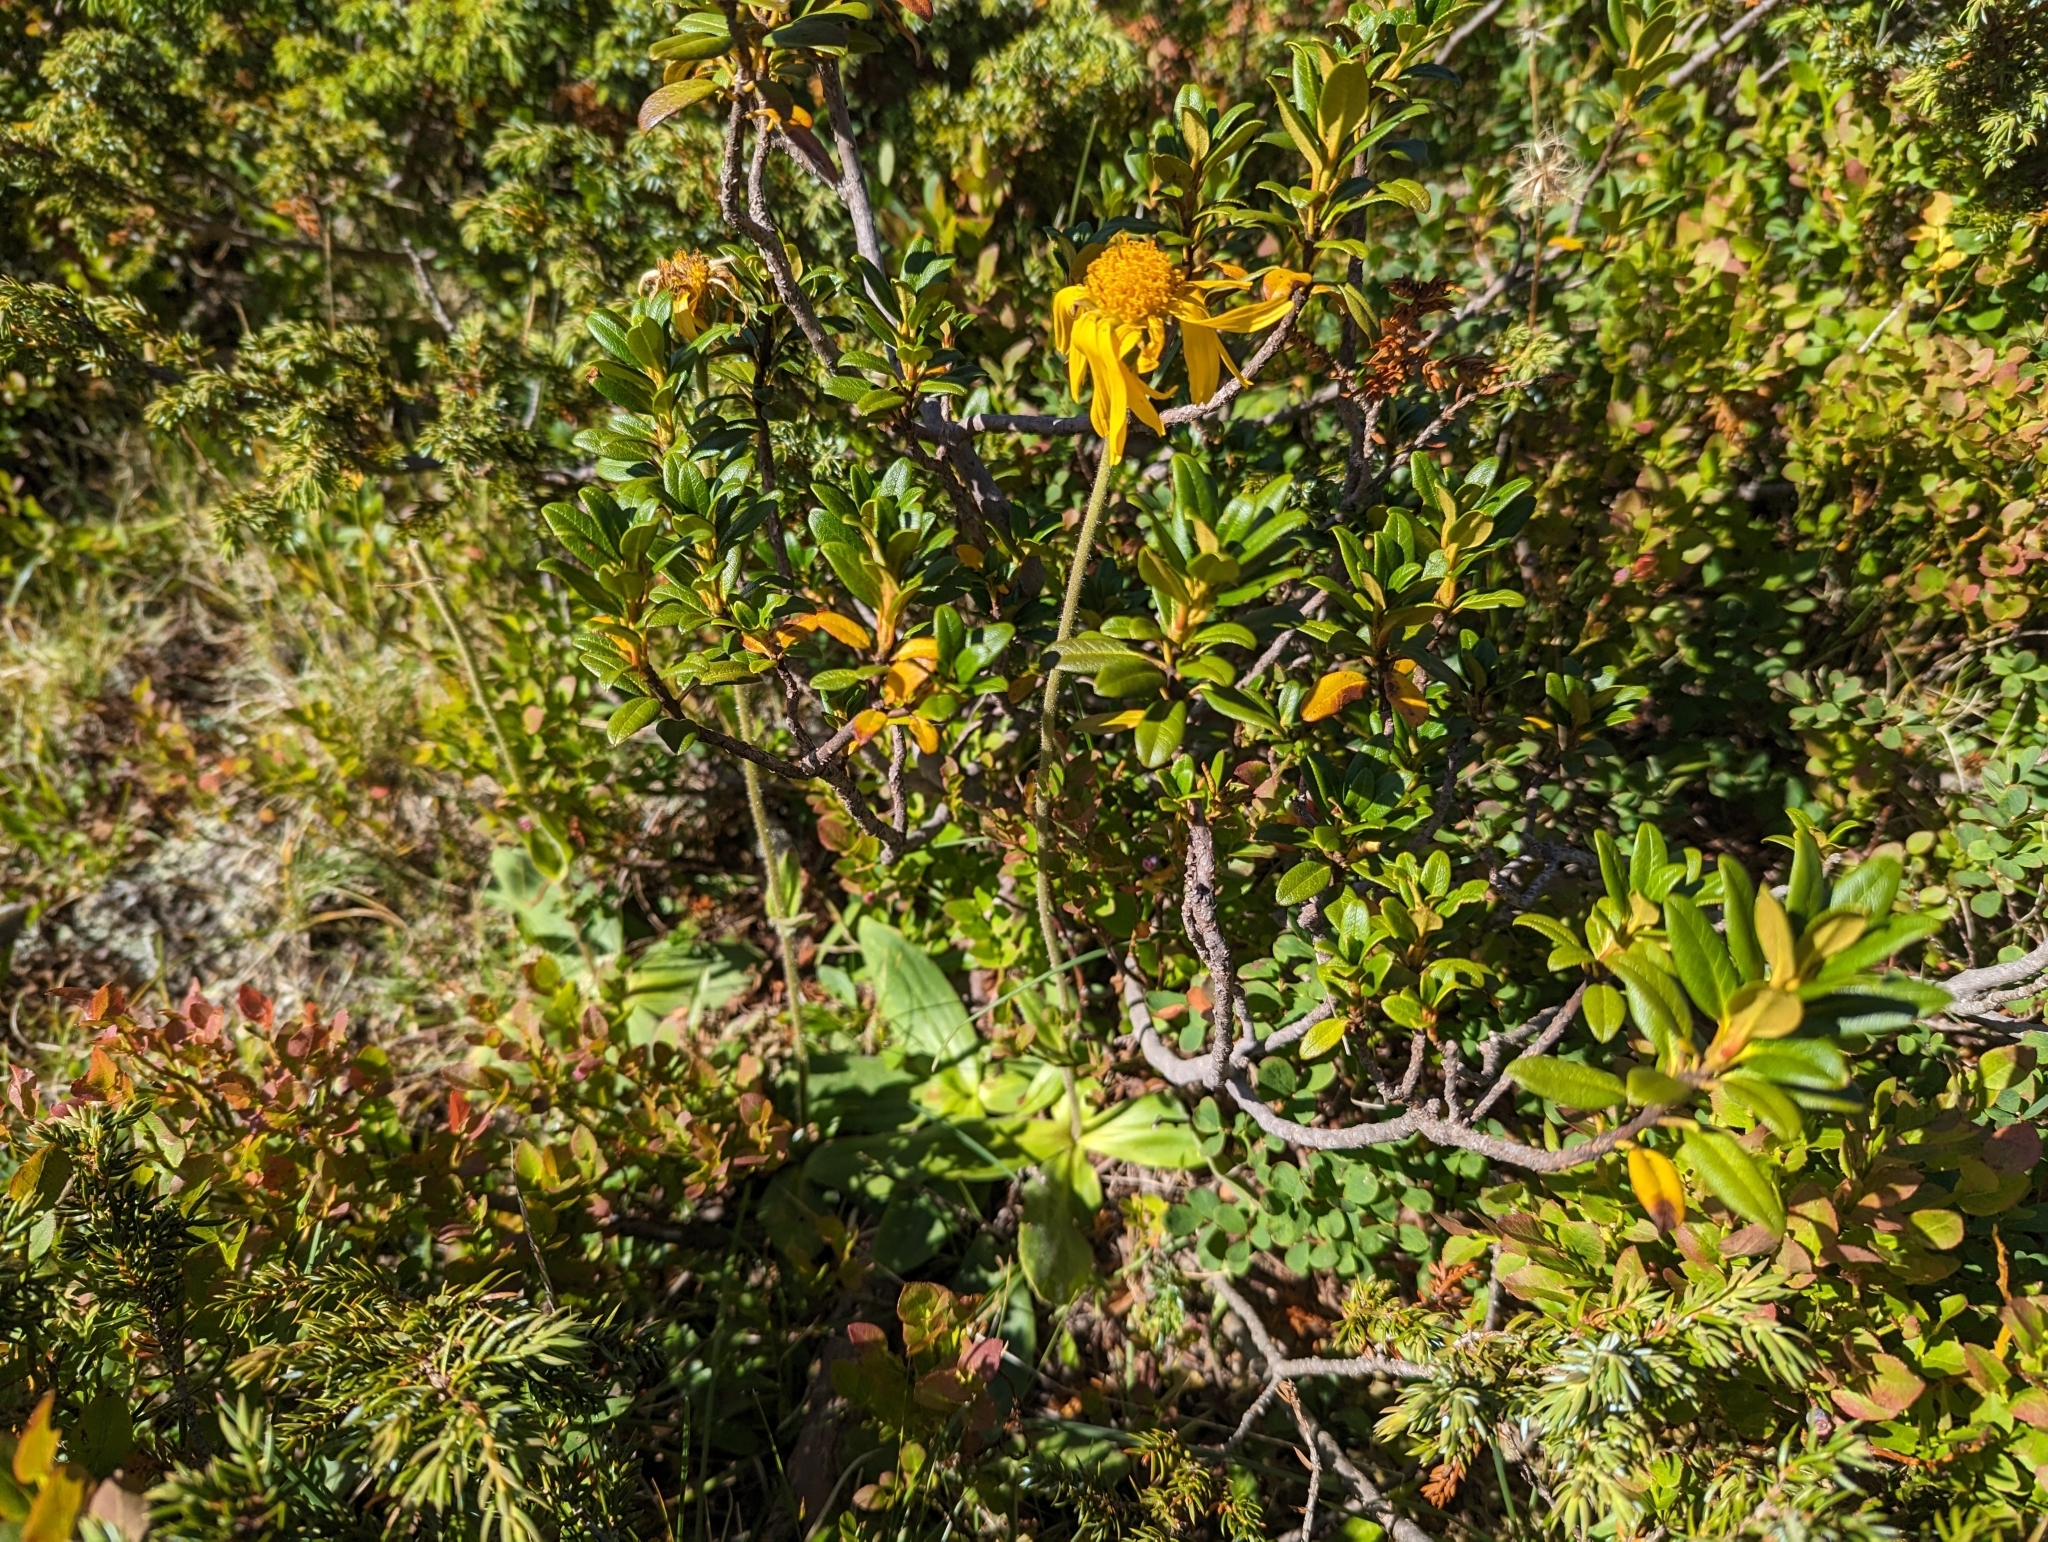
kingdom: Plantae
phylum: Tracheophyta
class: Magnoliopsida
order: Asterales
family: Asteraceae
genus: Arnica
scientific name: Arnica montana
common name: Leopard's bane
